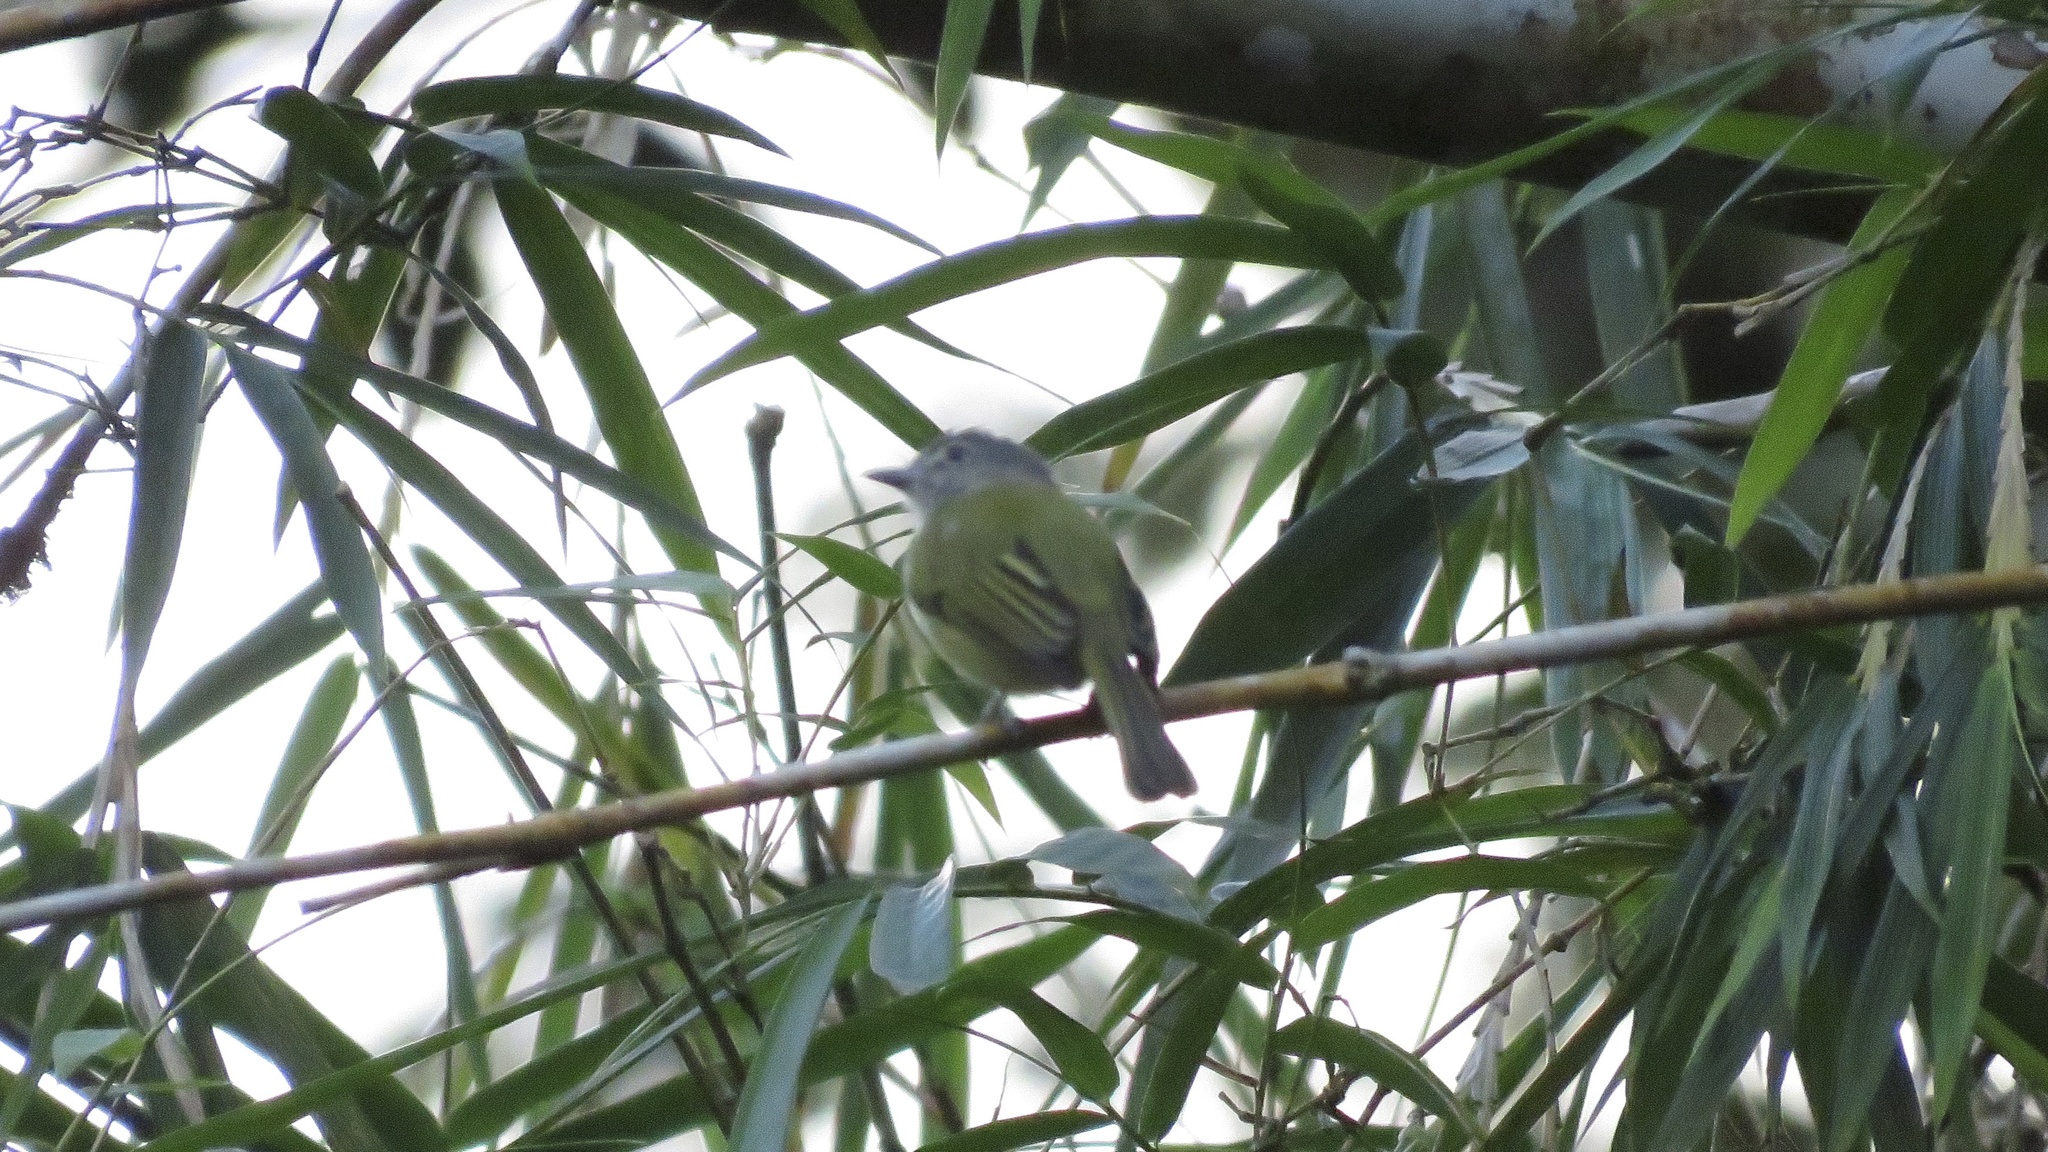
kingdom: Animalia
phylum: Chordata
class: Aves
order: Passeriformes
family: Tyrannidae
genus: Tolmomyias
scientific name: Tolmomyias sulphurescens
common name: Yellow-olive flycatcher
